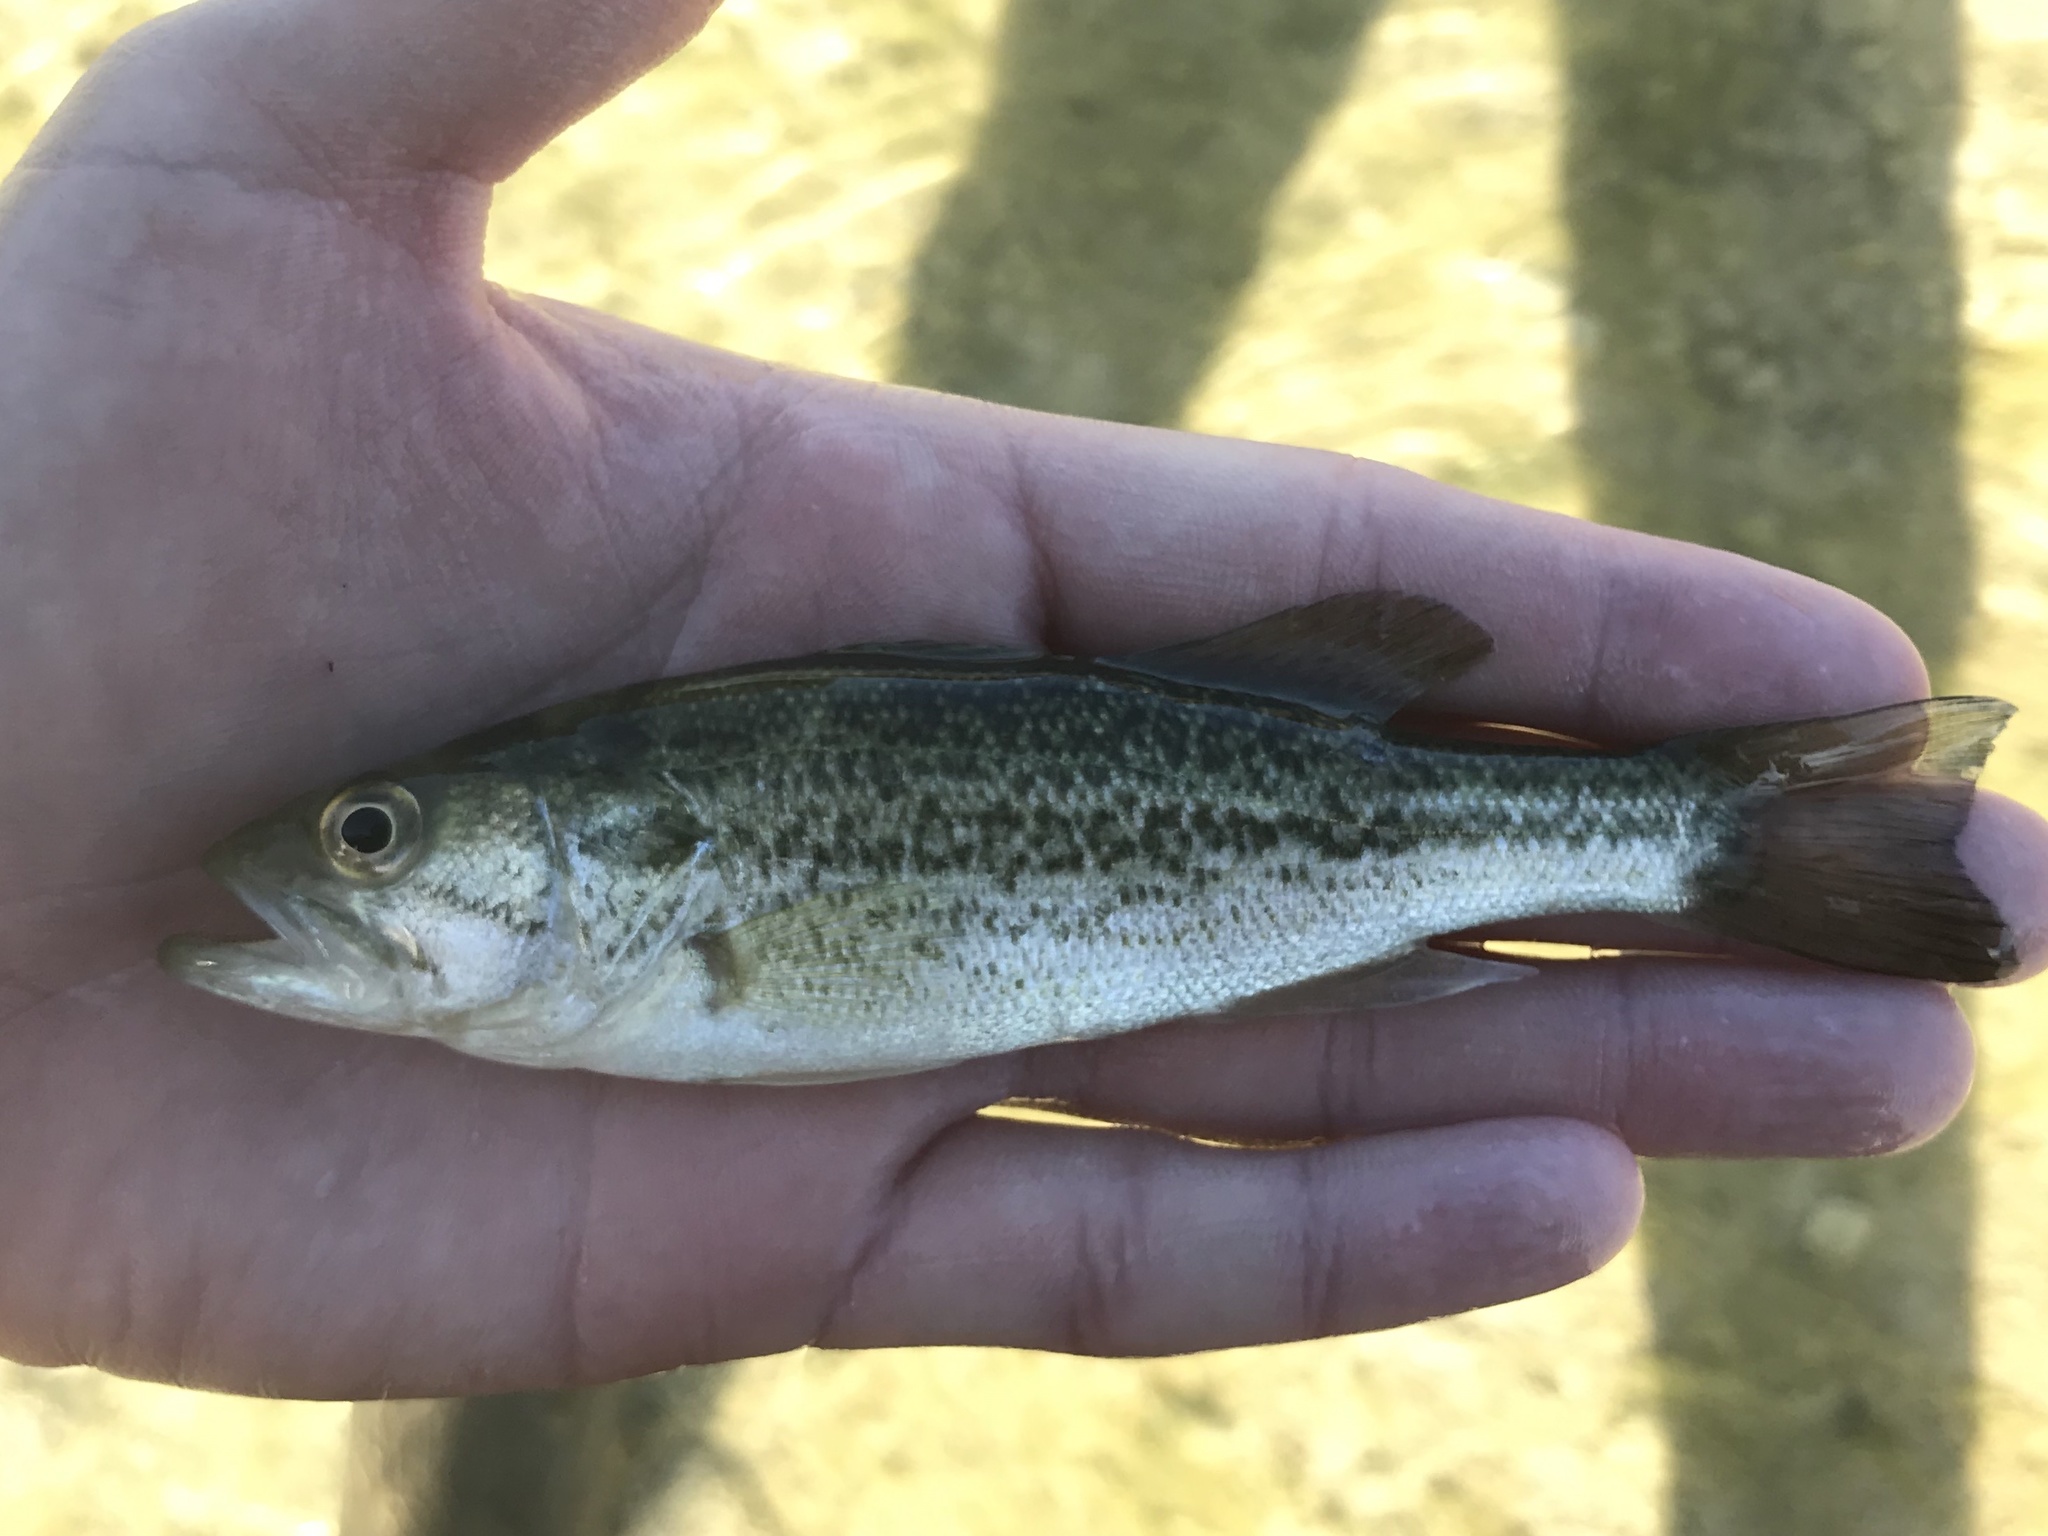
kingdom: Animalia
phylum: Chordata
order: Perciformes
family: Centrarchidae
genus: Micropterus
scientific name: Micropterus
